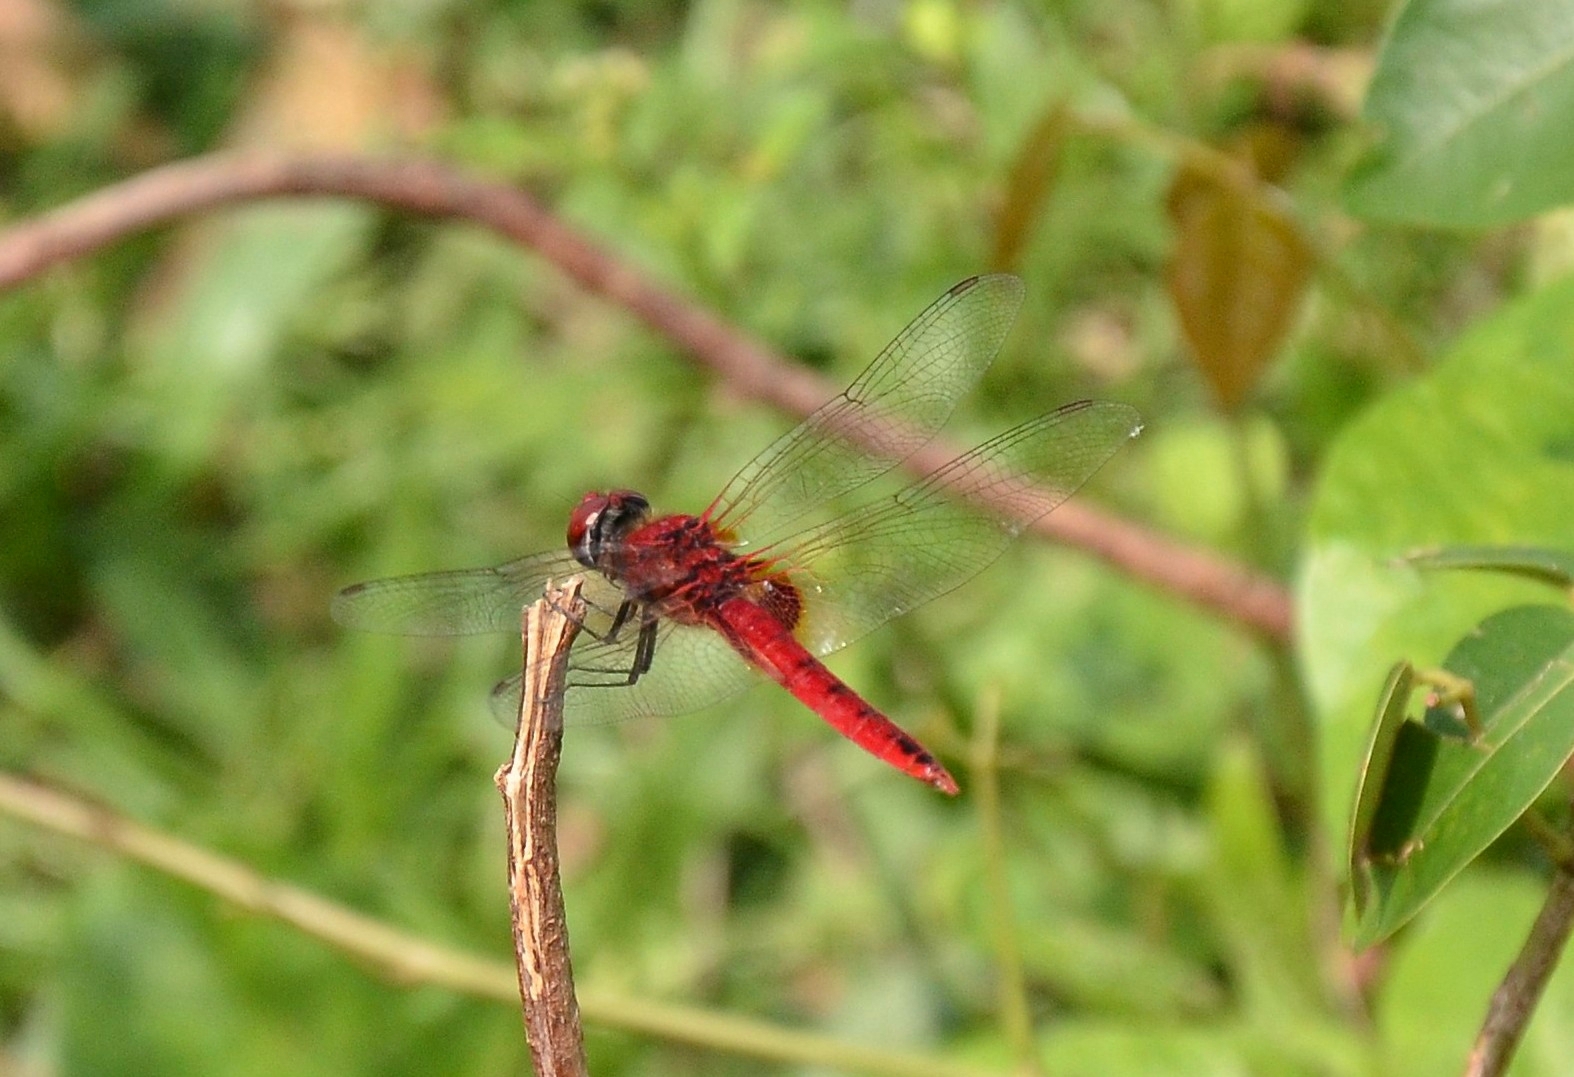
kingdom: Animalia
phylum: Arthropoda
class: Insecta
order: Odonata
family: Libellulidae
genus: Urothemis
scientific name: Urothemis signata
